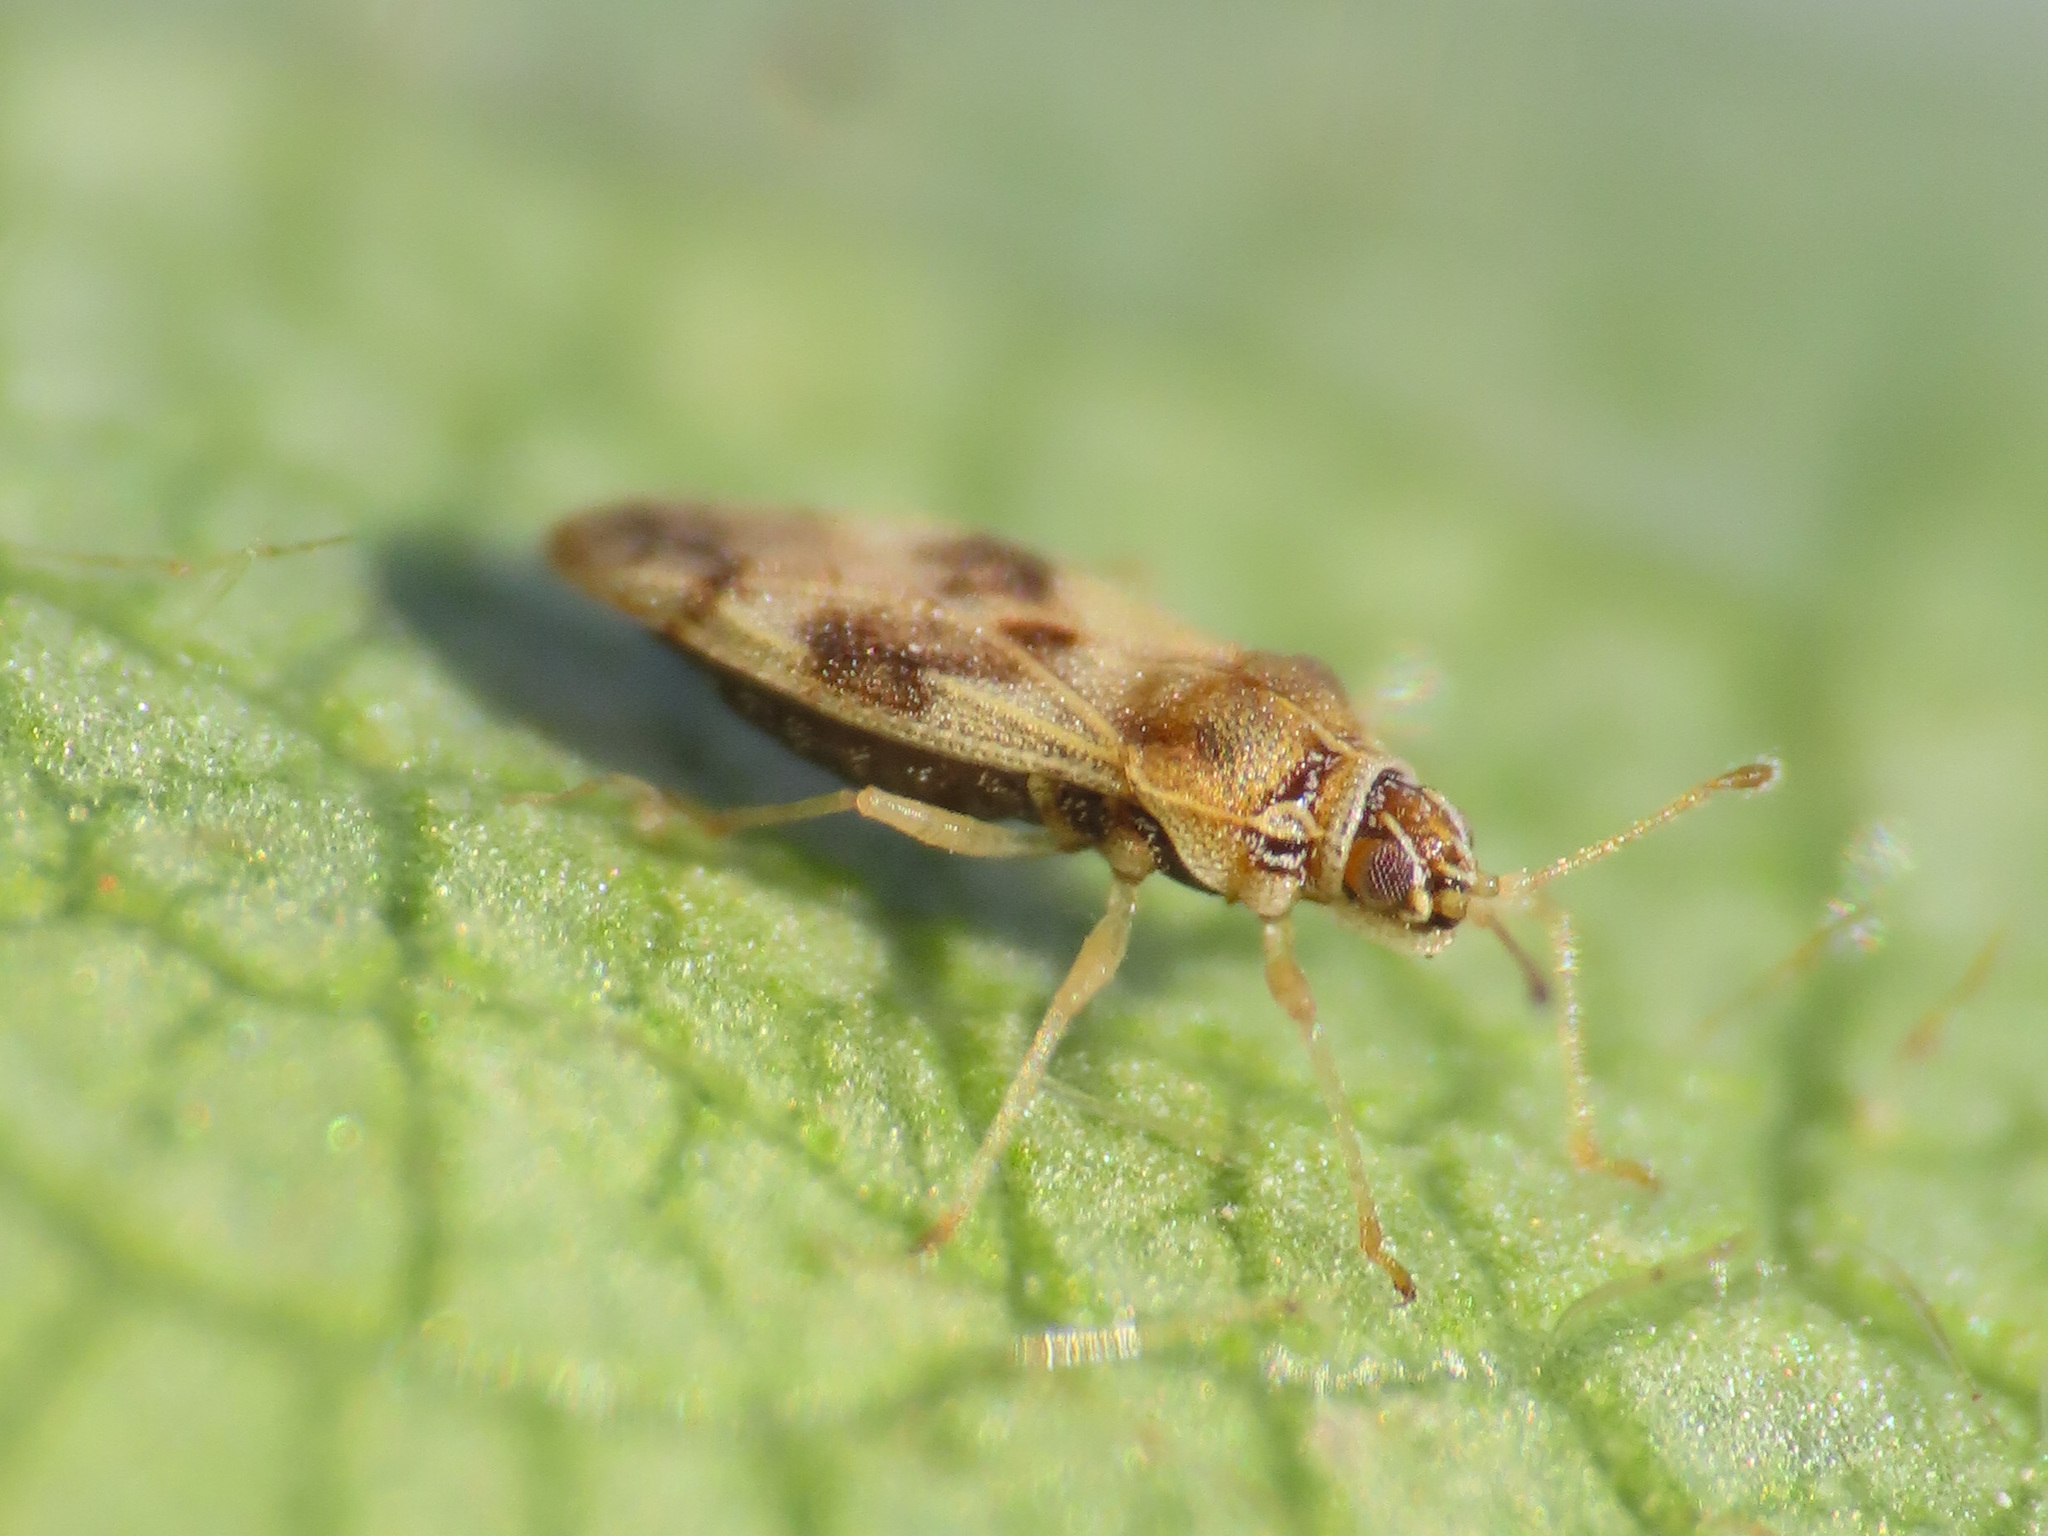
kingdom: Animalia
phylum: Arthropoda
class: Insecta
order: Hemiptera
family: Tingidae
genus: Monosteira
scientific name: Monosteira unicostata
